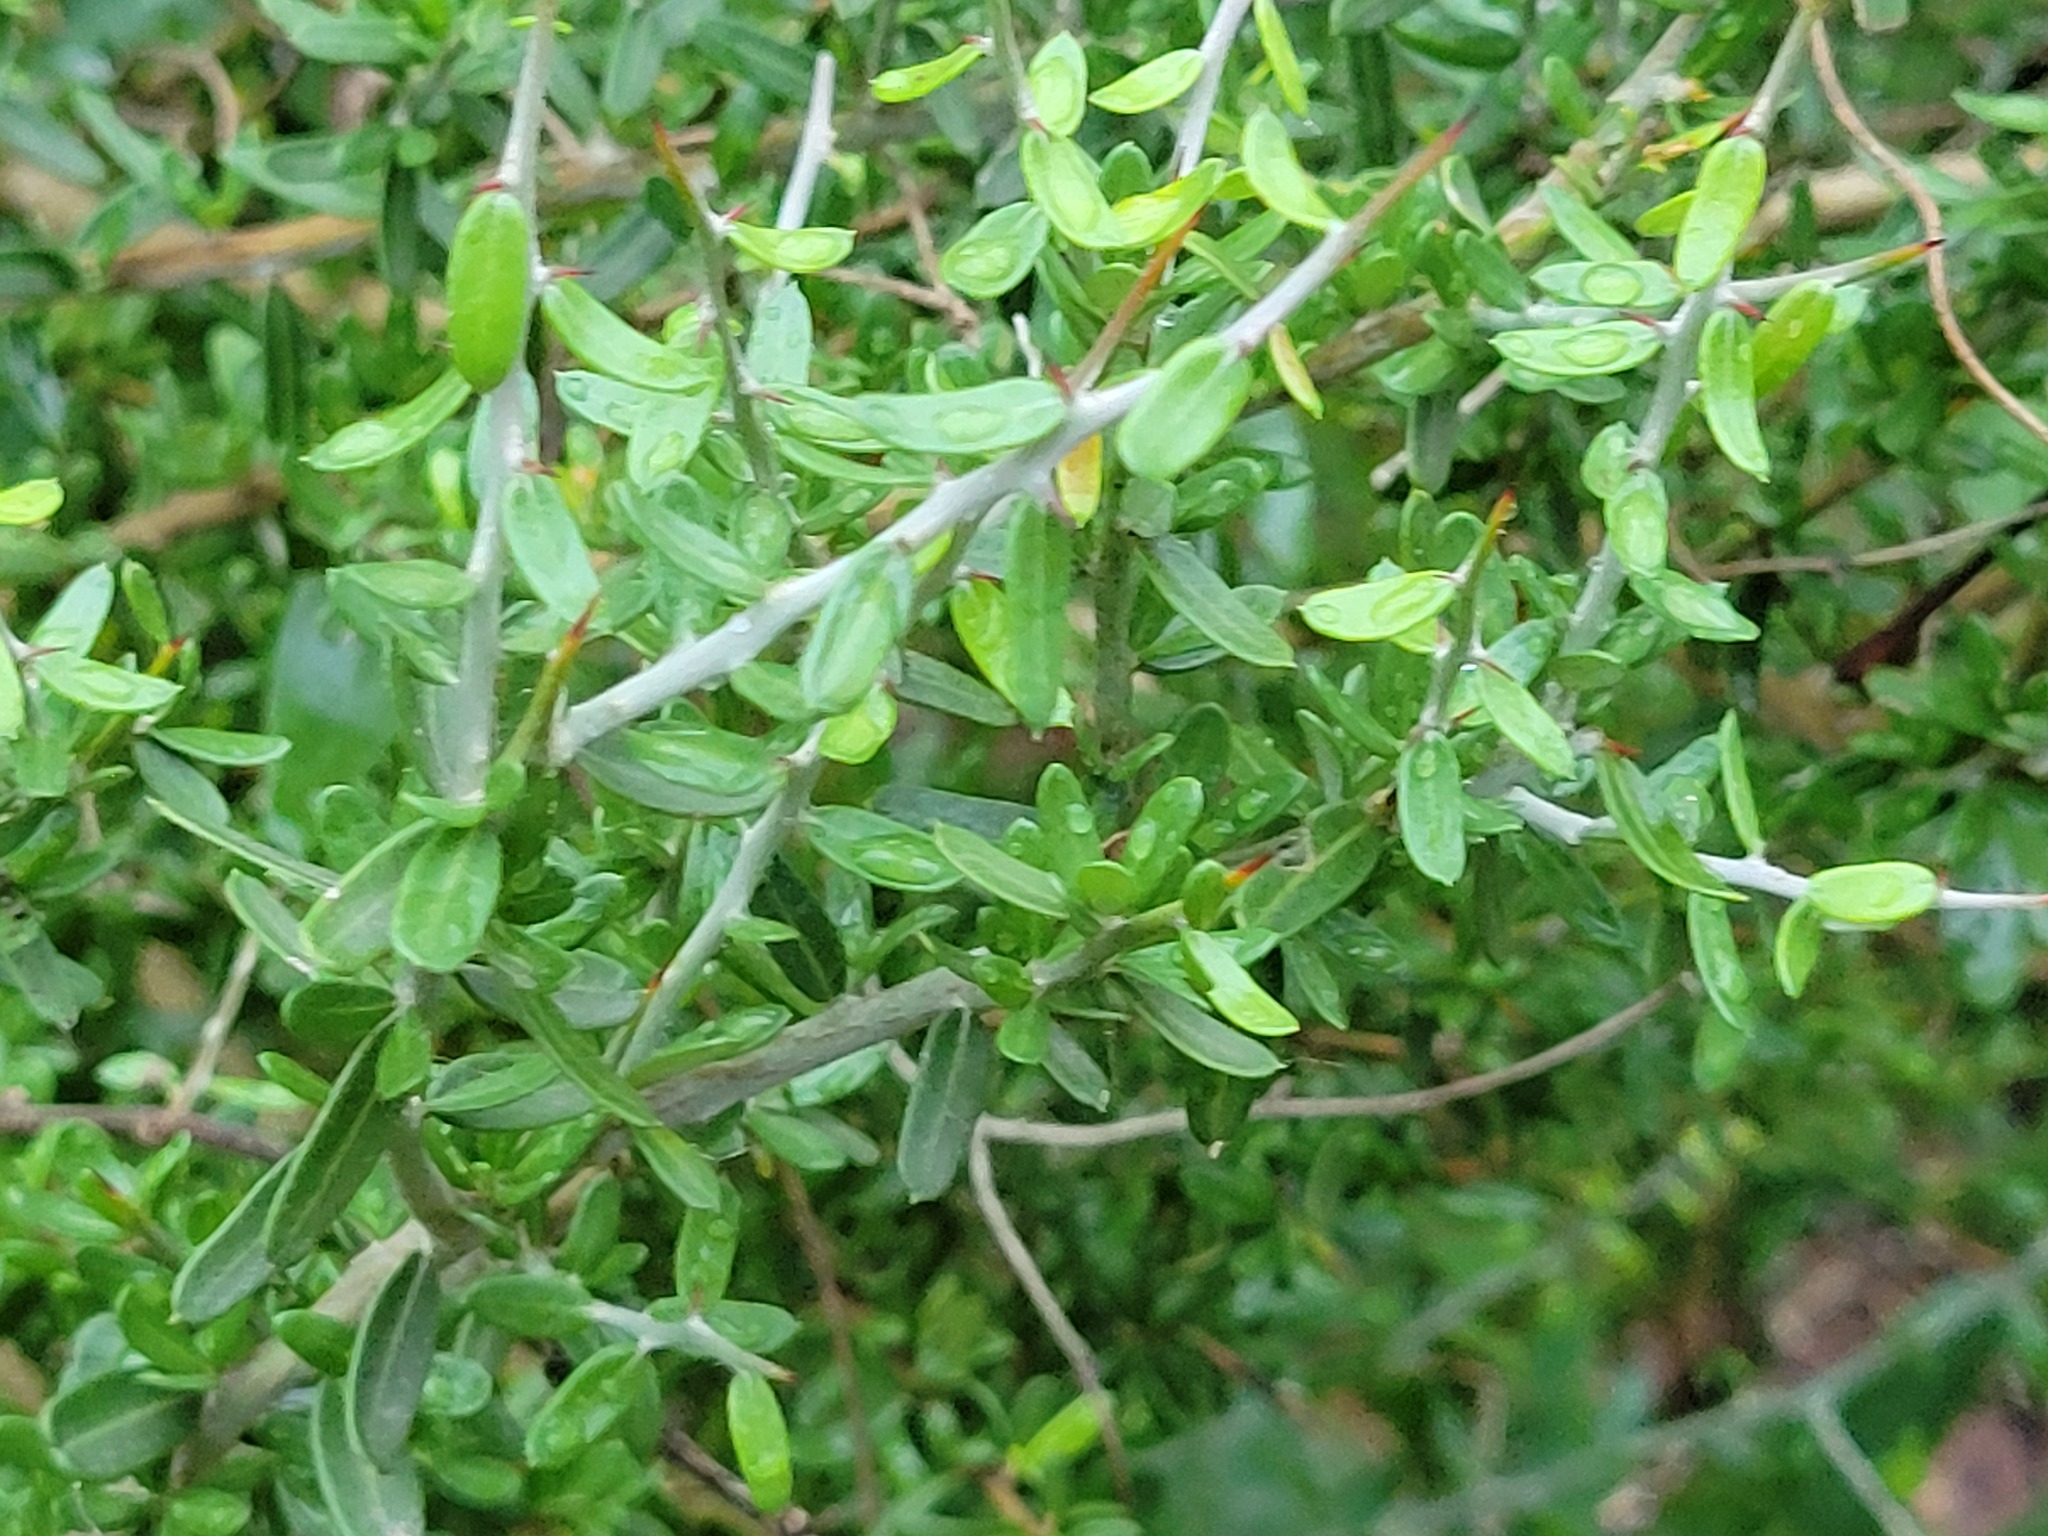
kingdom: Plantae
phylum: Tracheophyta
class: Magnoliopsida
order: Sapindales
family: Simaroubaceae
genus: Castela
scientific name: Castela erecta
